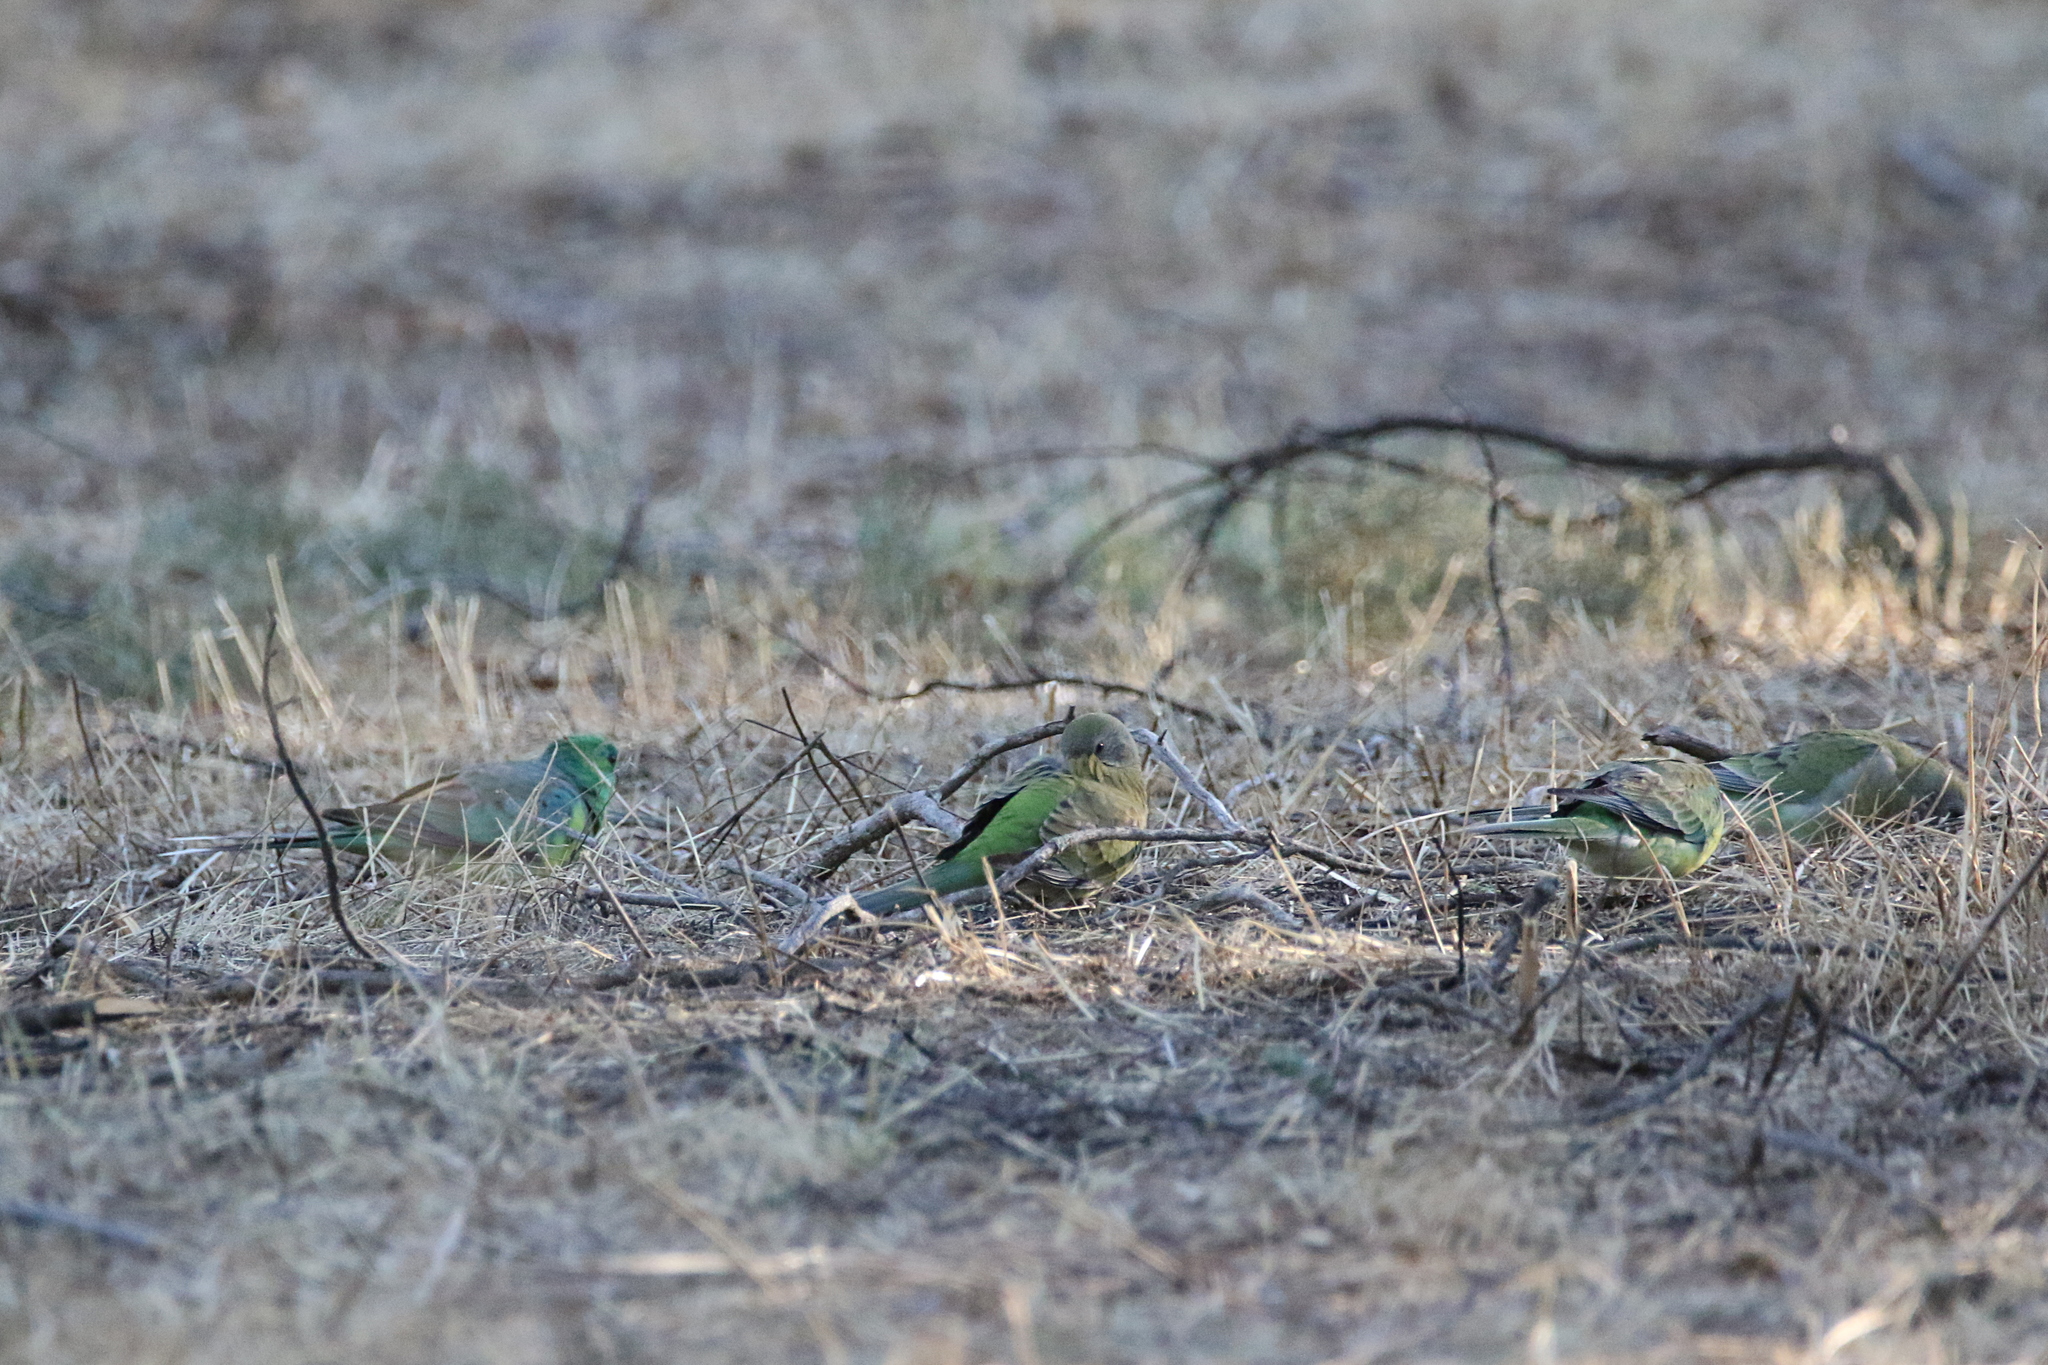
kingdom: Animalia
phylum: Chordata
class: Aves
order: Psittaciformes
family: Psittacidae
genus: Psephotus
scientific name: Psephotus haematonotus
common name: Red-rumped parrot
